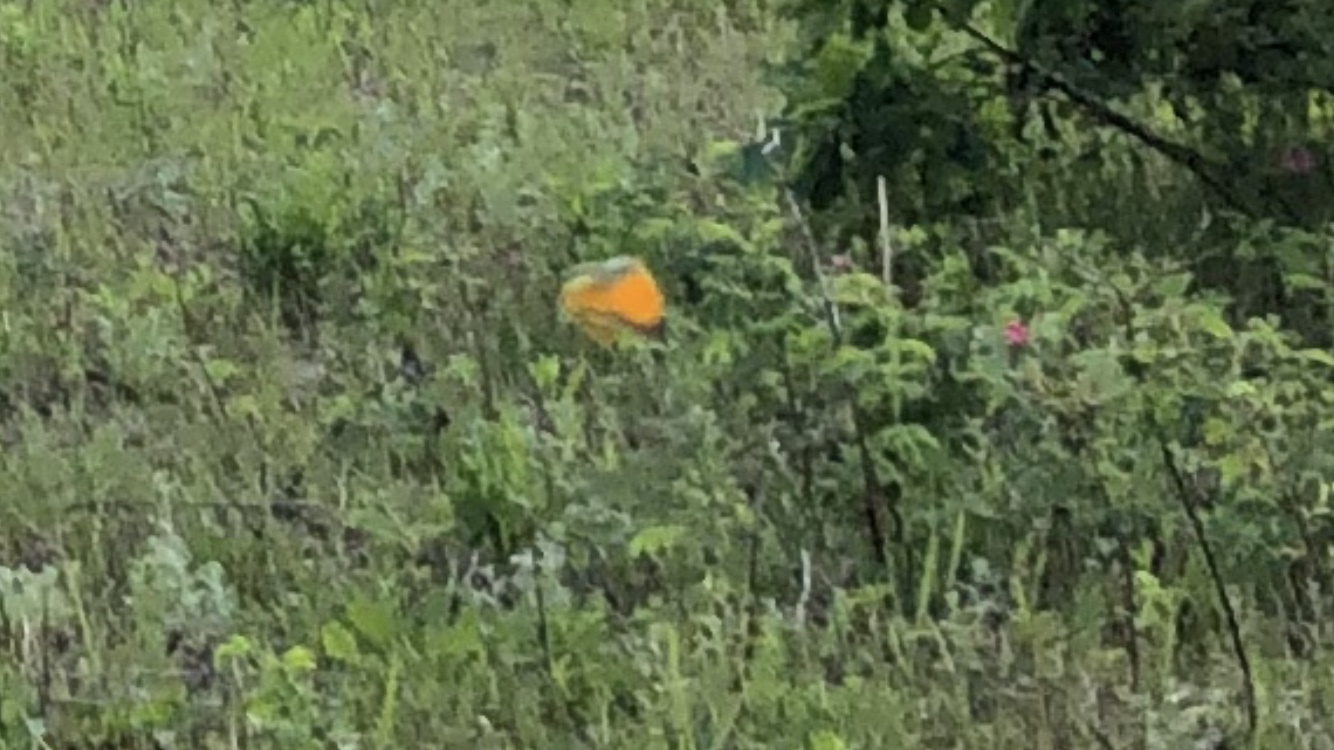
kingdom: Animalia
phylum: Arthropoda
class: Insecta
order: Lepidoptera
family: Pieridae
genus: Colias
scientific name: Colias myrmidone
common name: Danube clouded yellow
